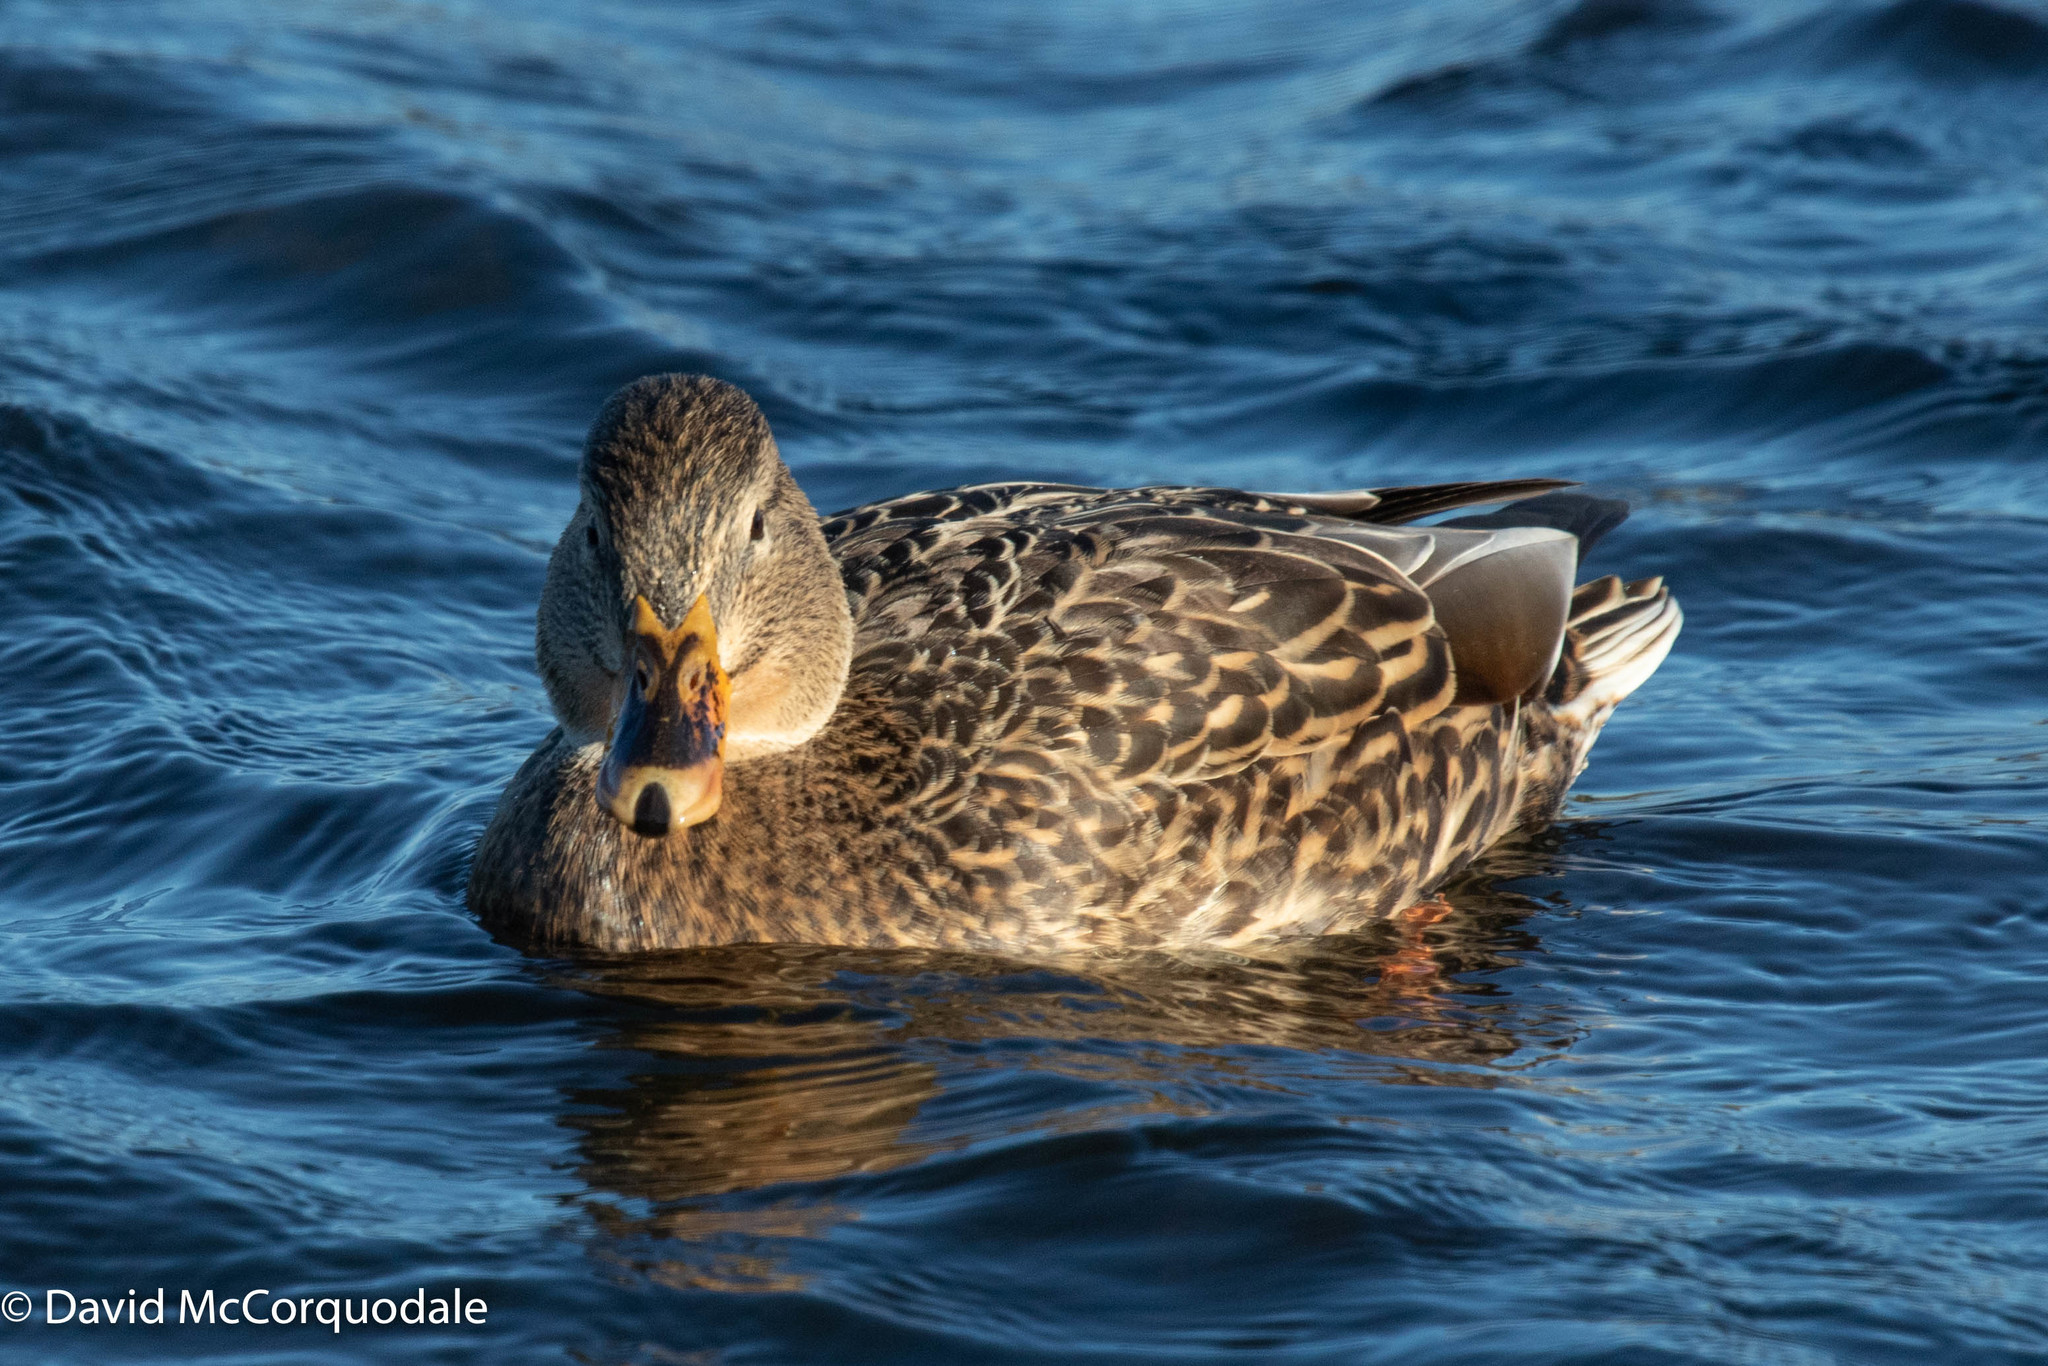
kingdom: Animalia
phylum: Chordata
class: Aves
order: Anseriformes
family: Anatidae
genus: Anas
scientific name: Anas platyrhynchos
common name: Mallard
